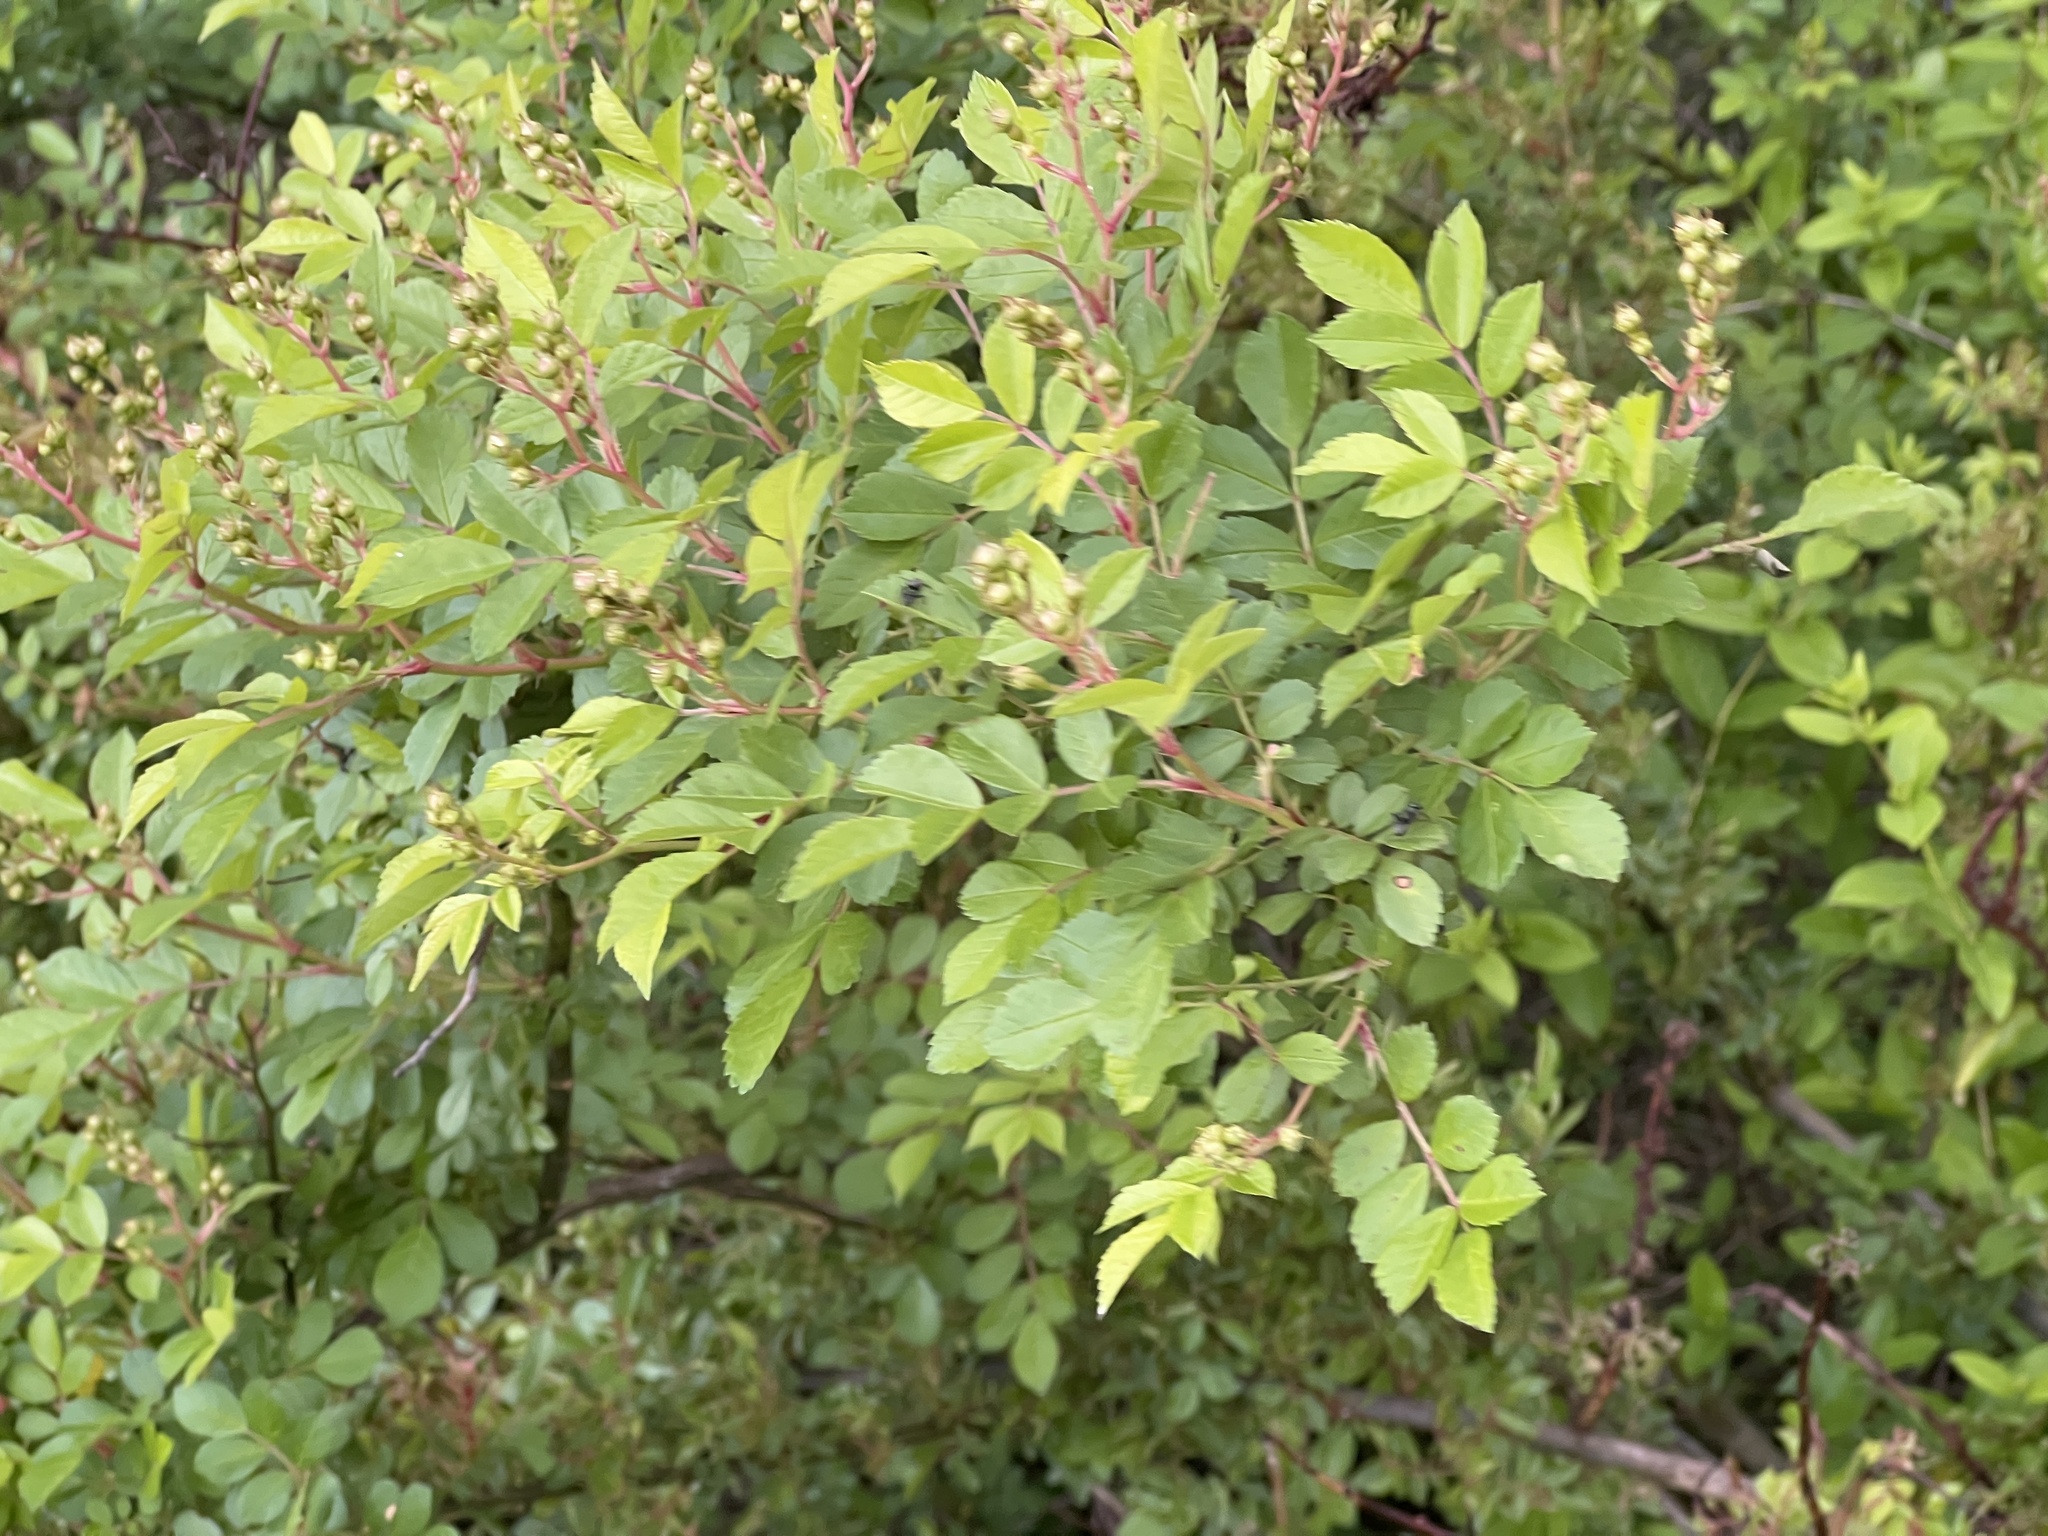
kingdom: Plantae
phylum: Tracheophyta
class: Magnoliopsida
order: Rosales
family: Rosaceae
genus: Rosa
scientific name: Rosa multiflora
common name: Multiflora rose
